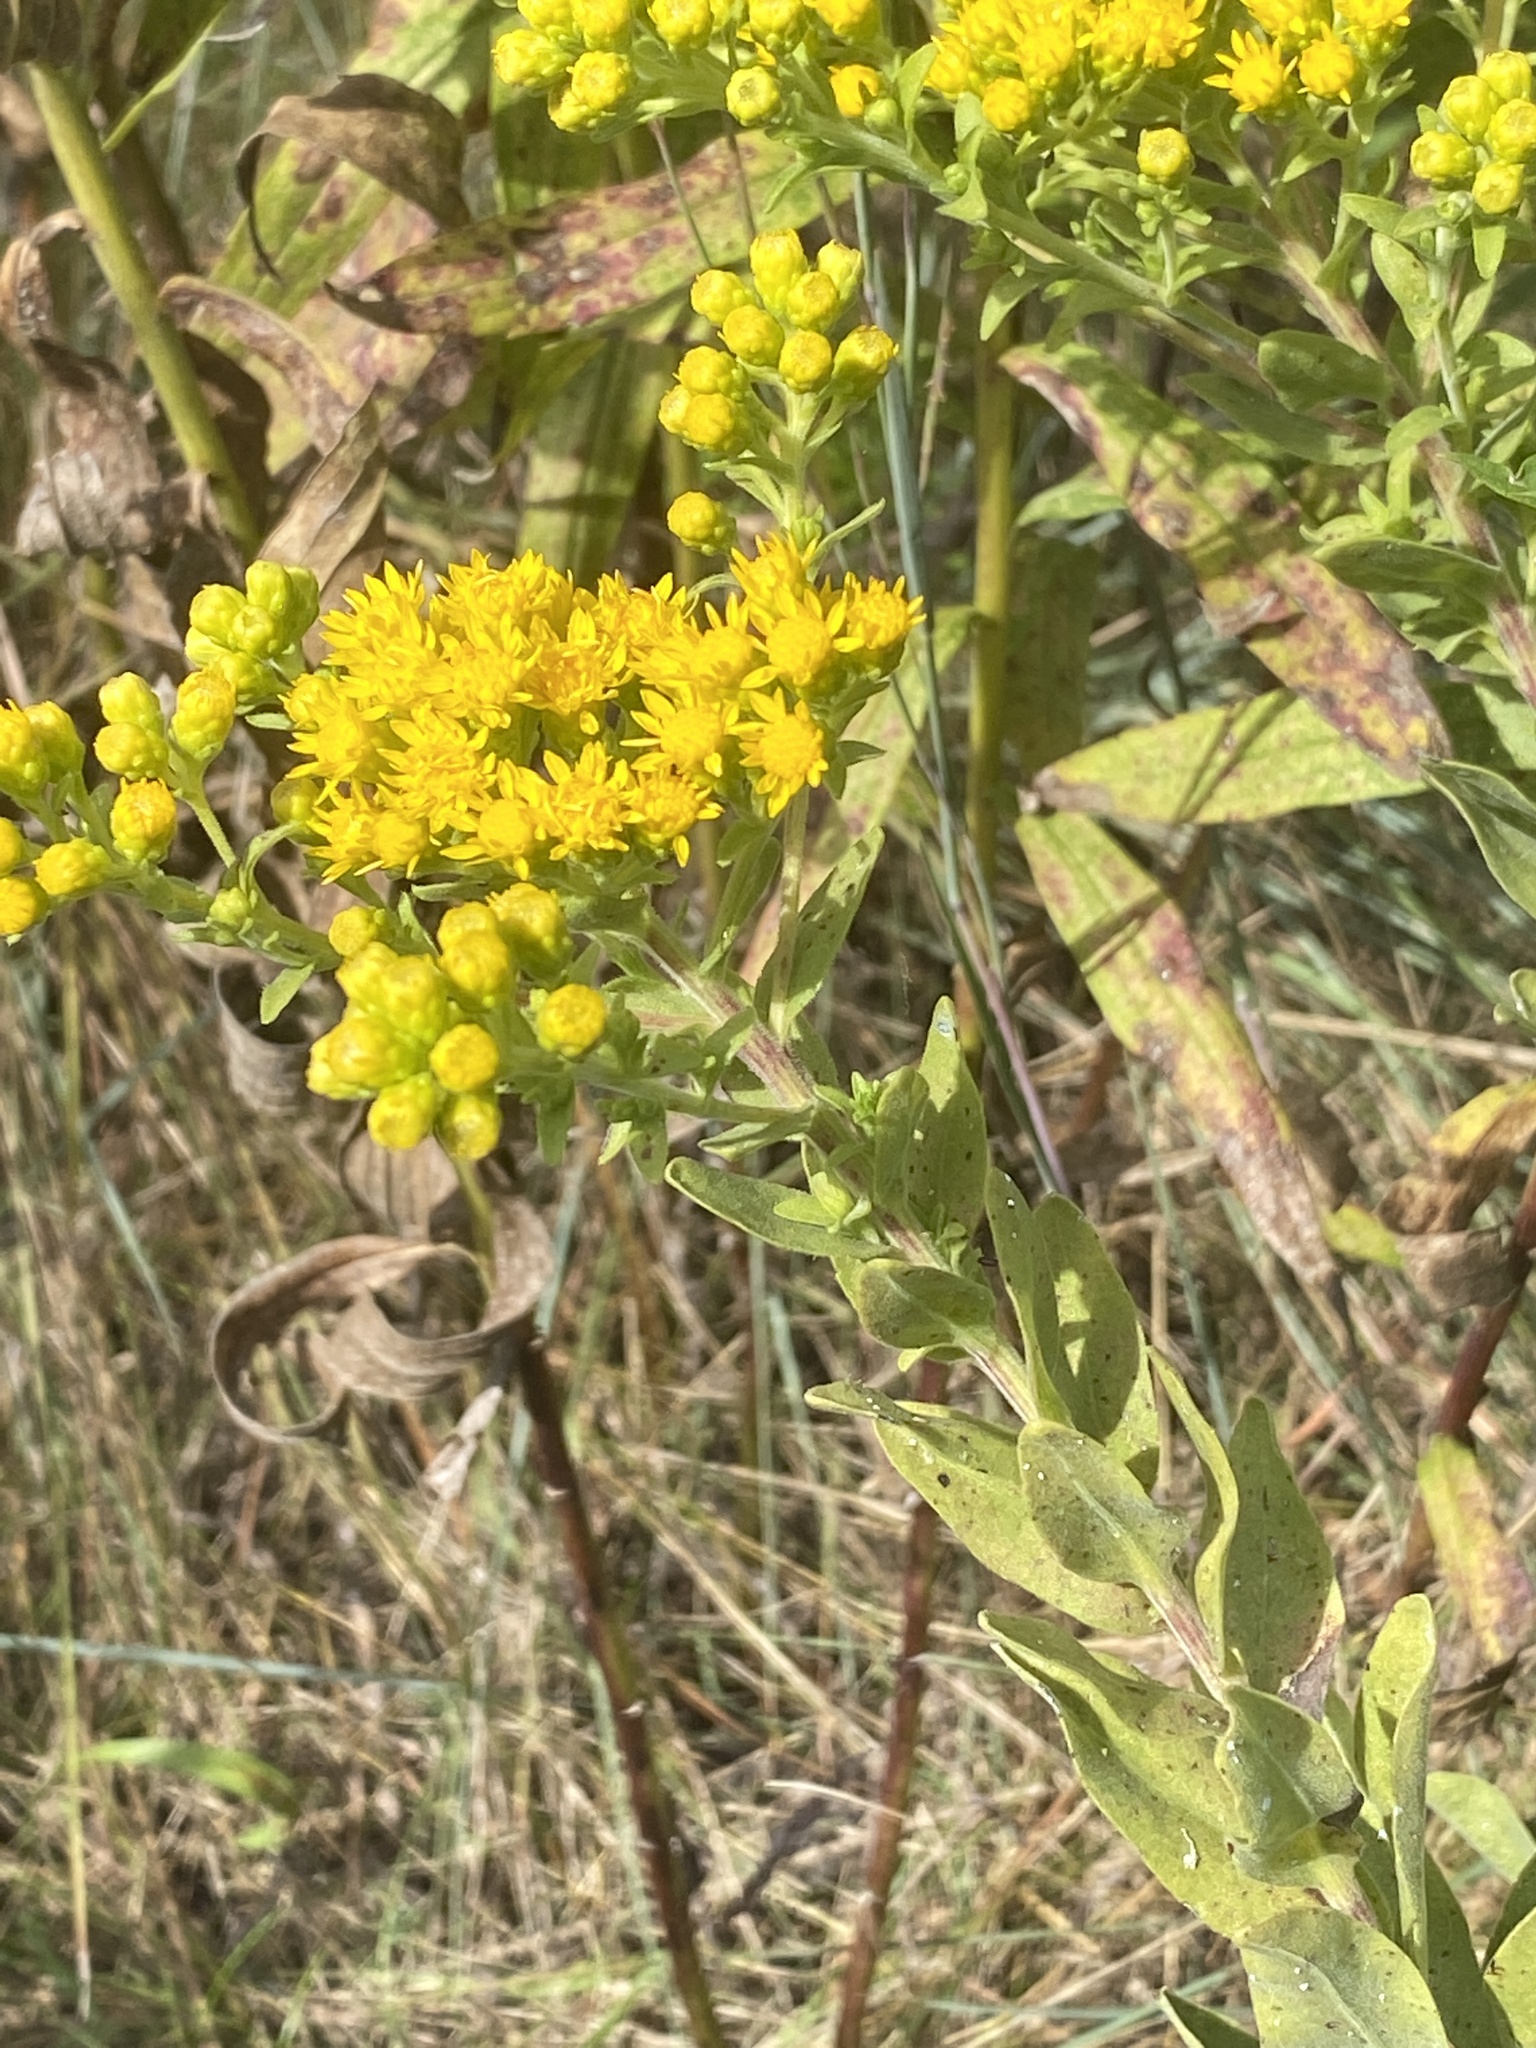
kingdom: Plantae
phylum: Tracheophyta
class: Magnoliopsida
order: Asterales
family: Asteraceae
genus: Solidago
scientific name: Solidago rigida
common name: Rigid goldenrod
